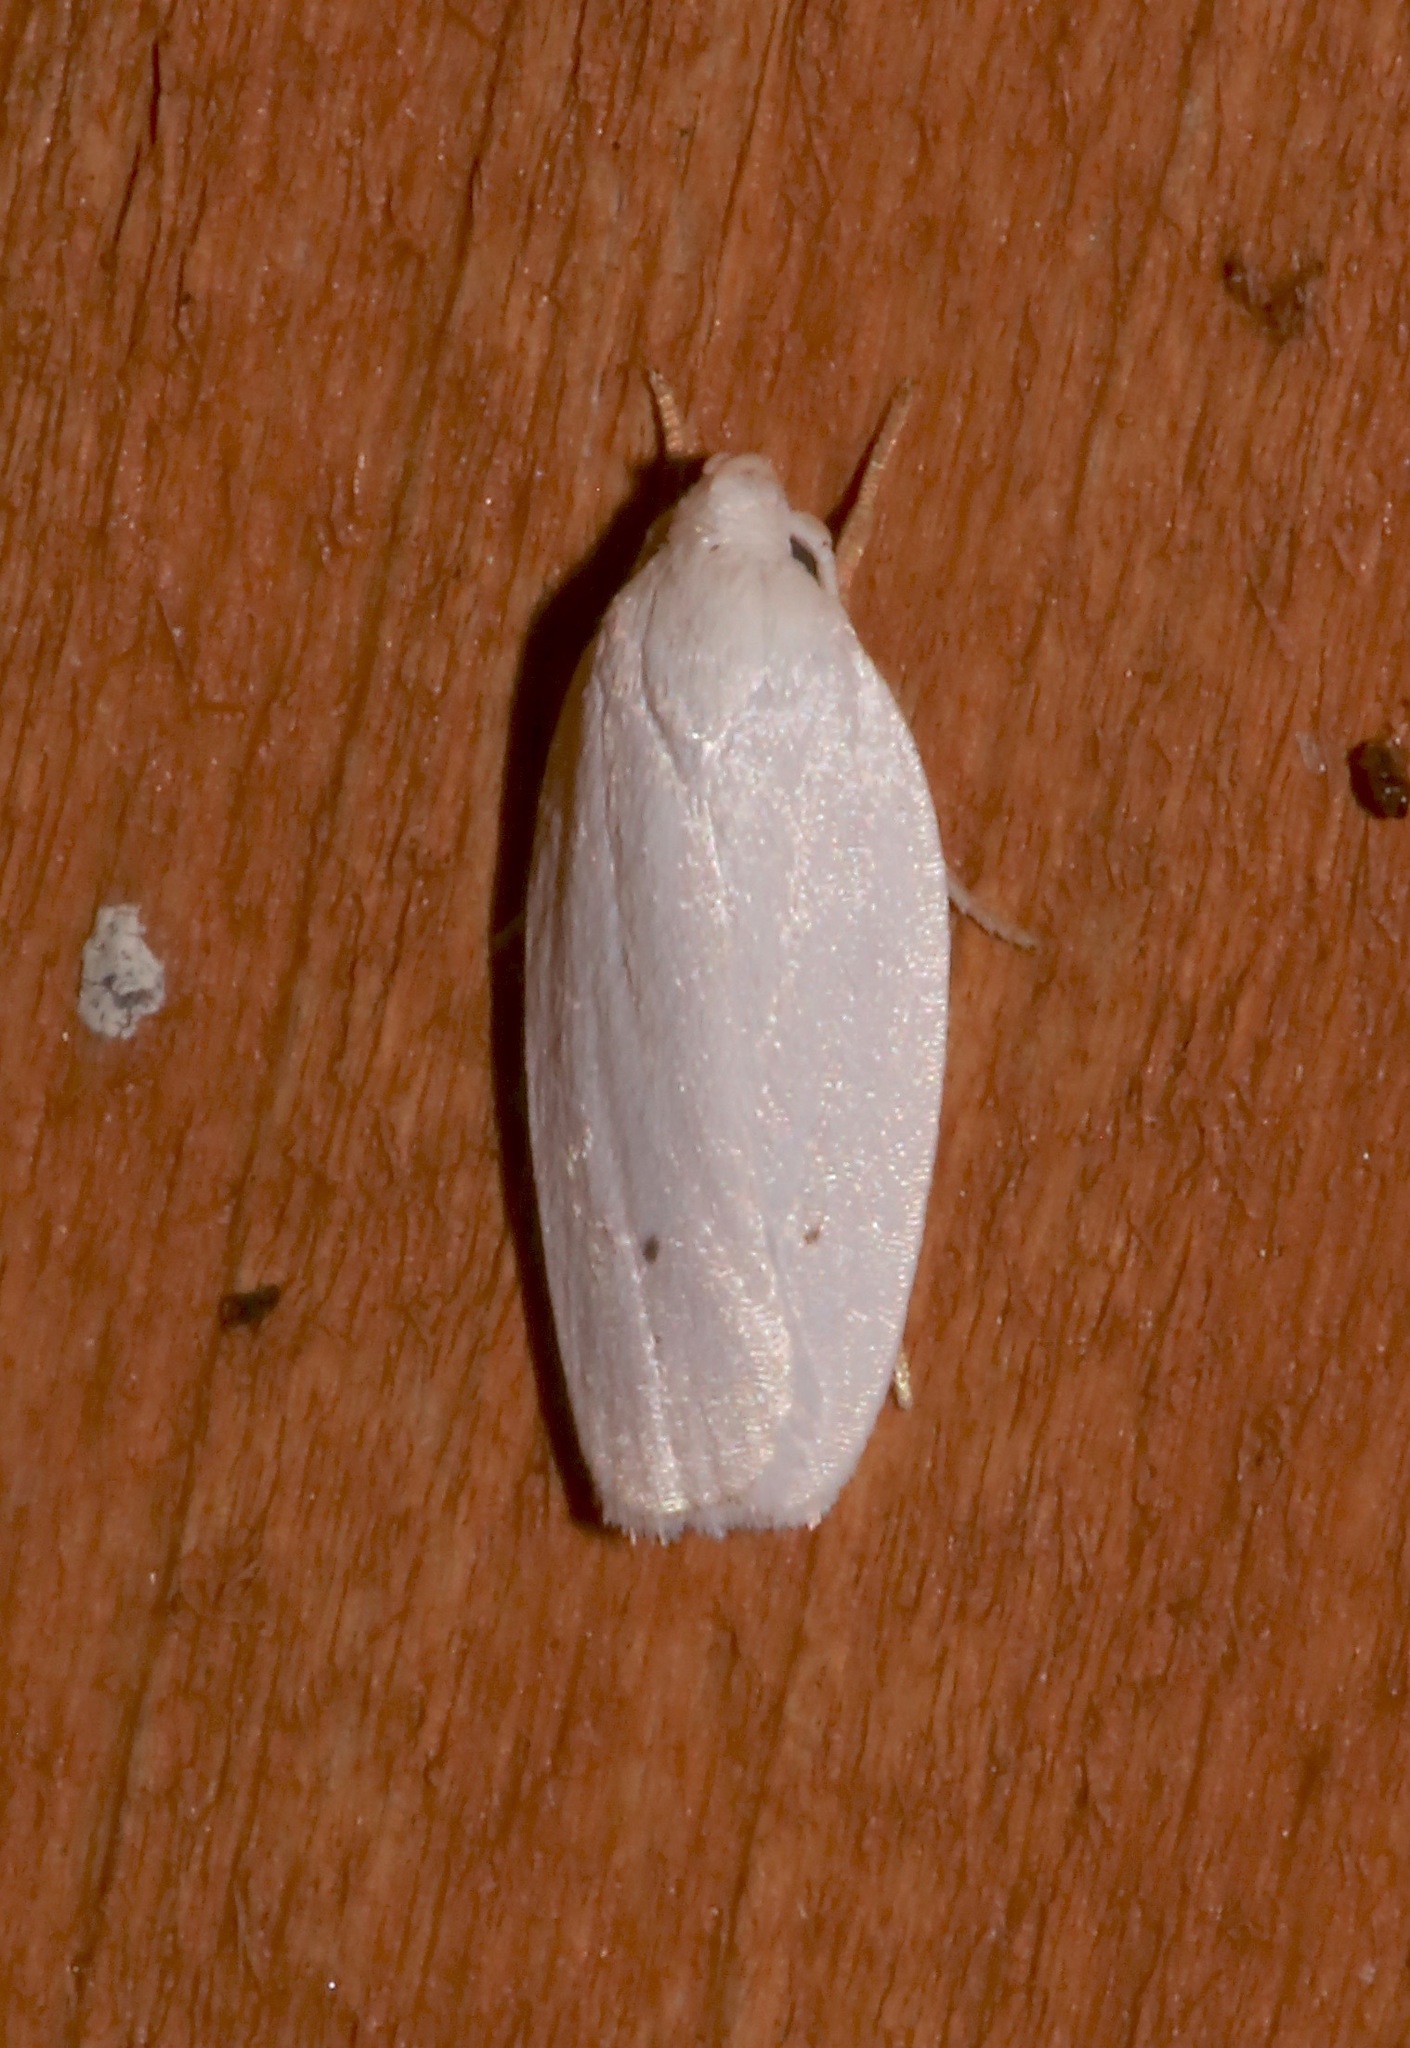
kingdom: Animalia
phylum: Arthropoda
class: Insecta
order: Lepidoptera
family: Depressariidae
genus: Antaeotricha
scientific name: Antaeotricha albulella
